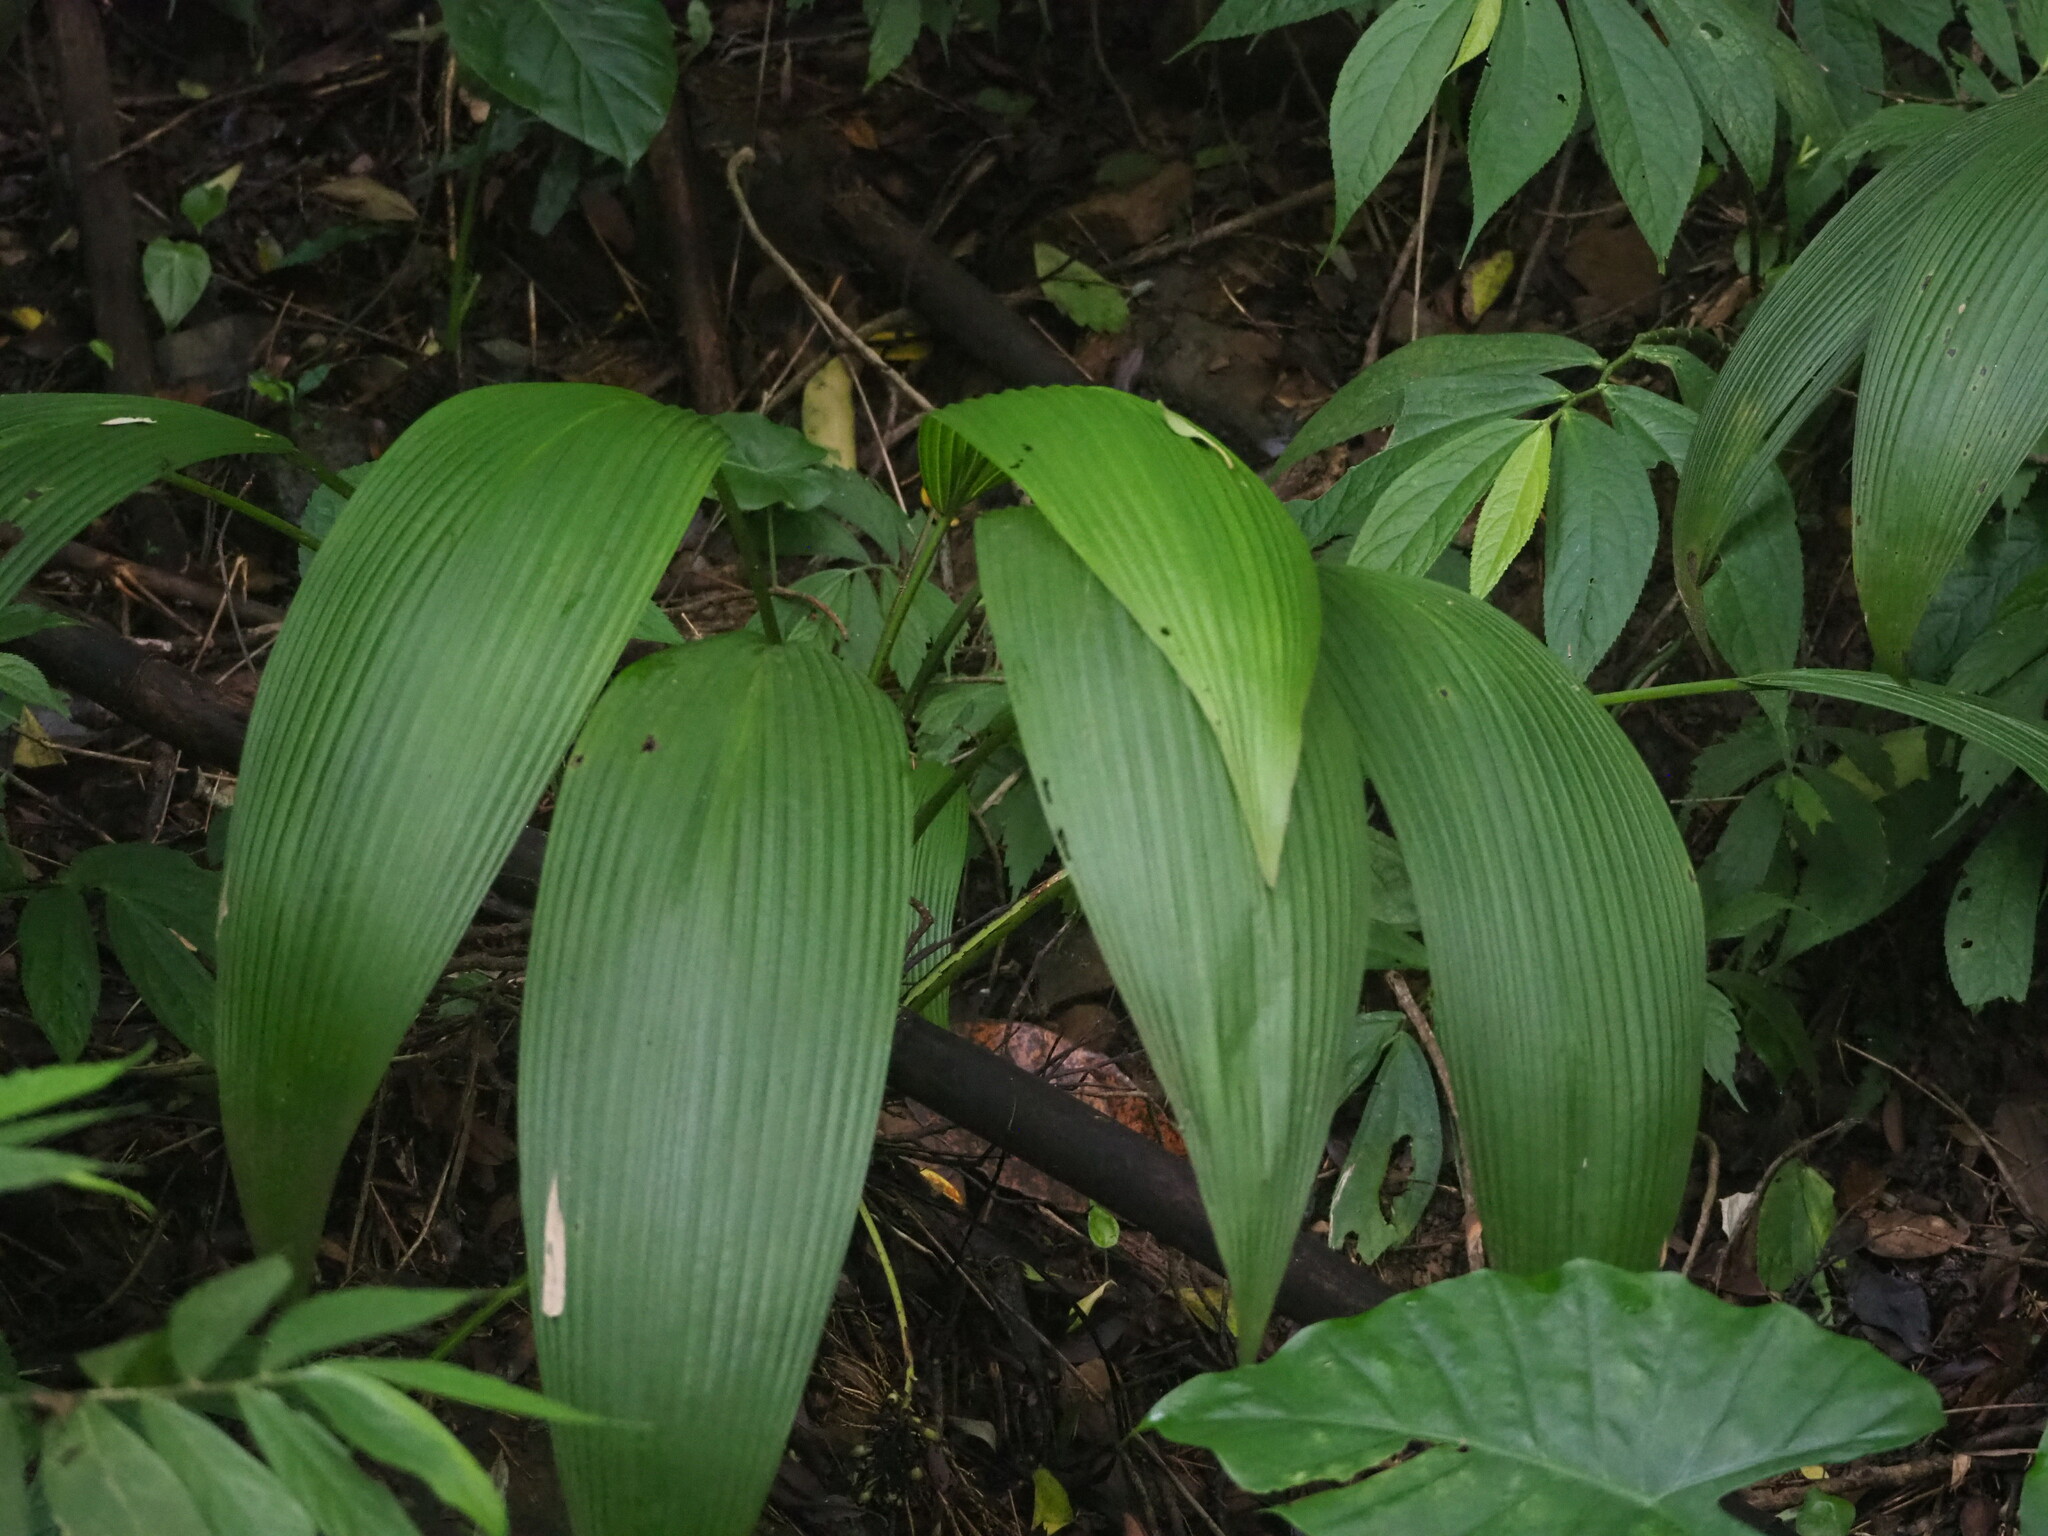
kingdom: Plantae
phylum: Tracheophyta
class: Liliopsida
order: Asparagales
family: Hypoxidaceae
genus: Curculigo
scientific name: Curculigo capitulata
